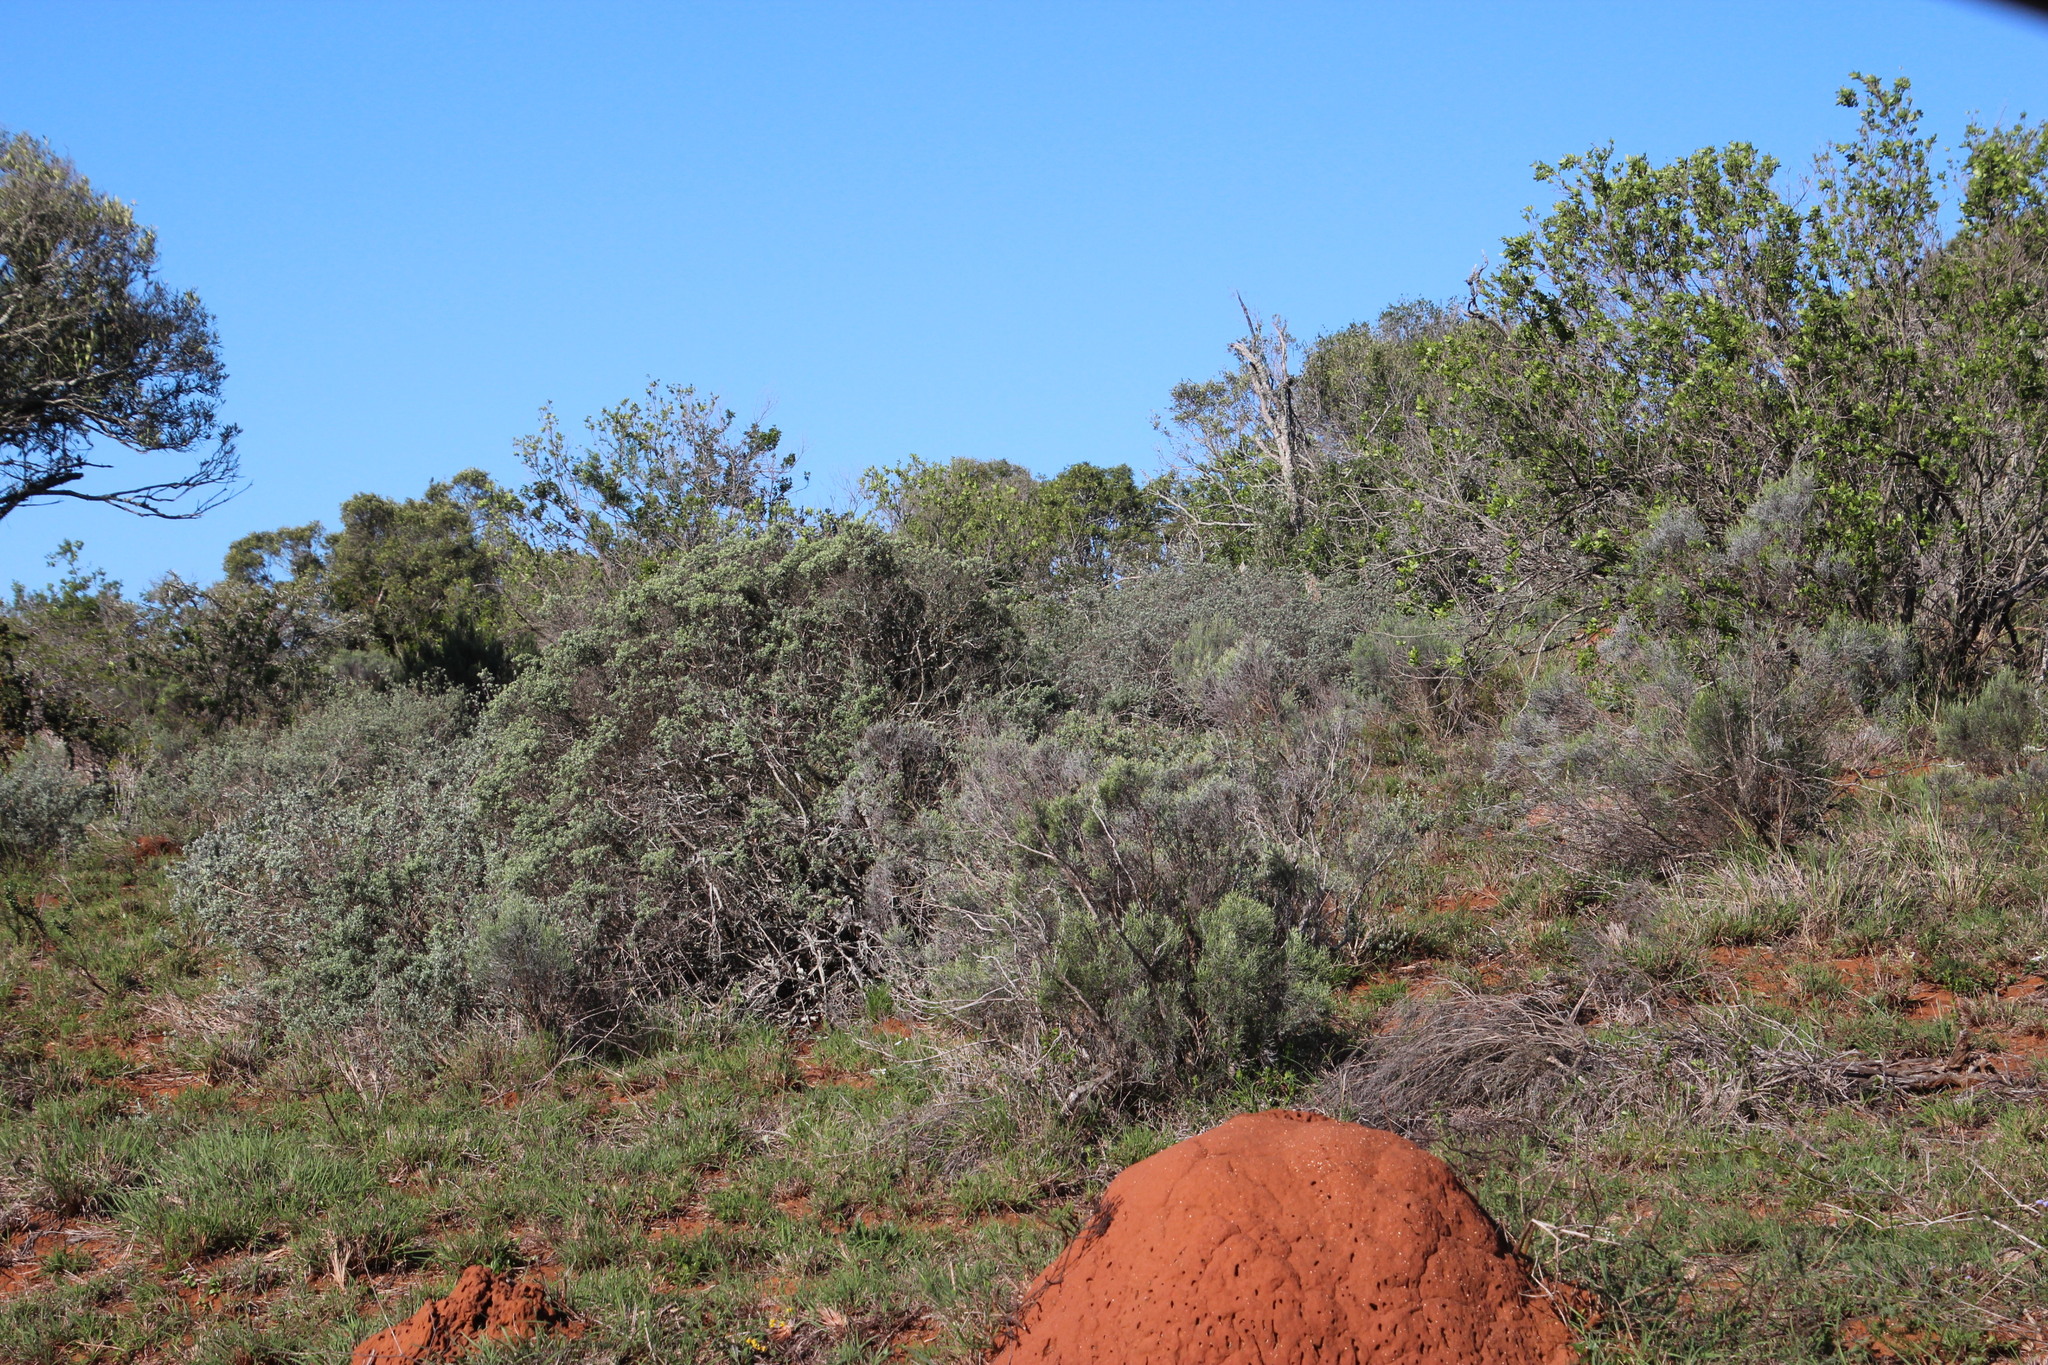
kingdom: Plantae
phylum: Tracheophyta
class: Magnoliopsida
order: Asterales
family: Asteraceae
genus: Dicerothamnus
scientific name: Dicerothamnus rhinocerotis
